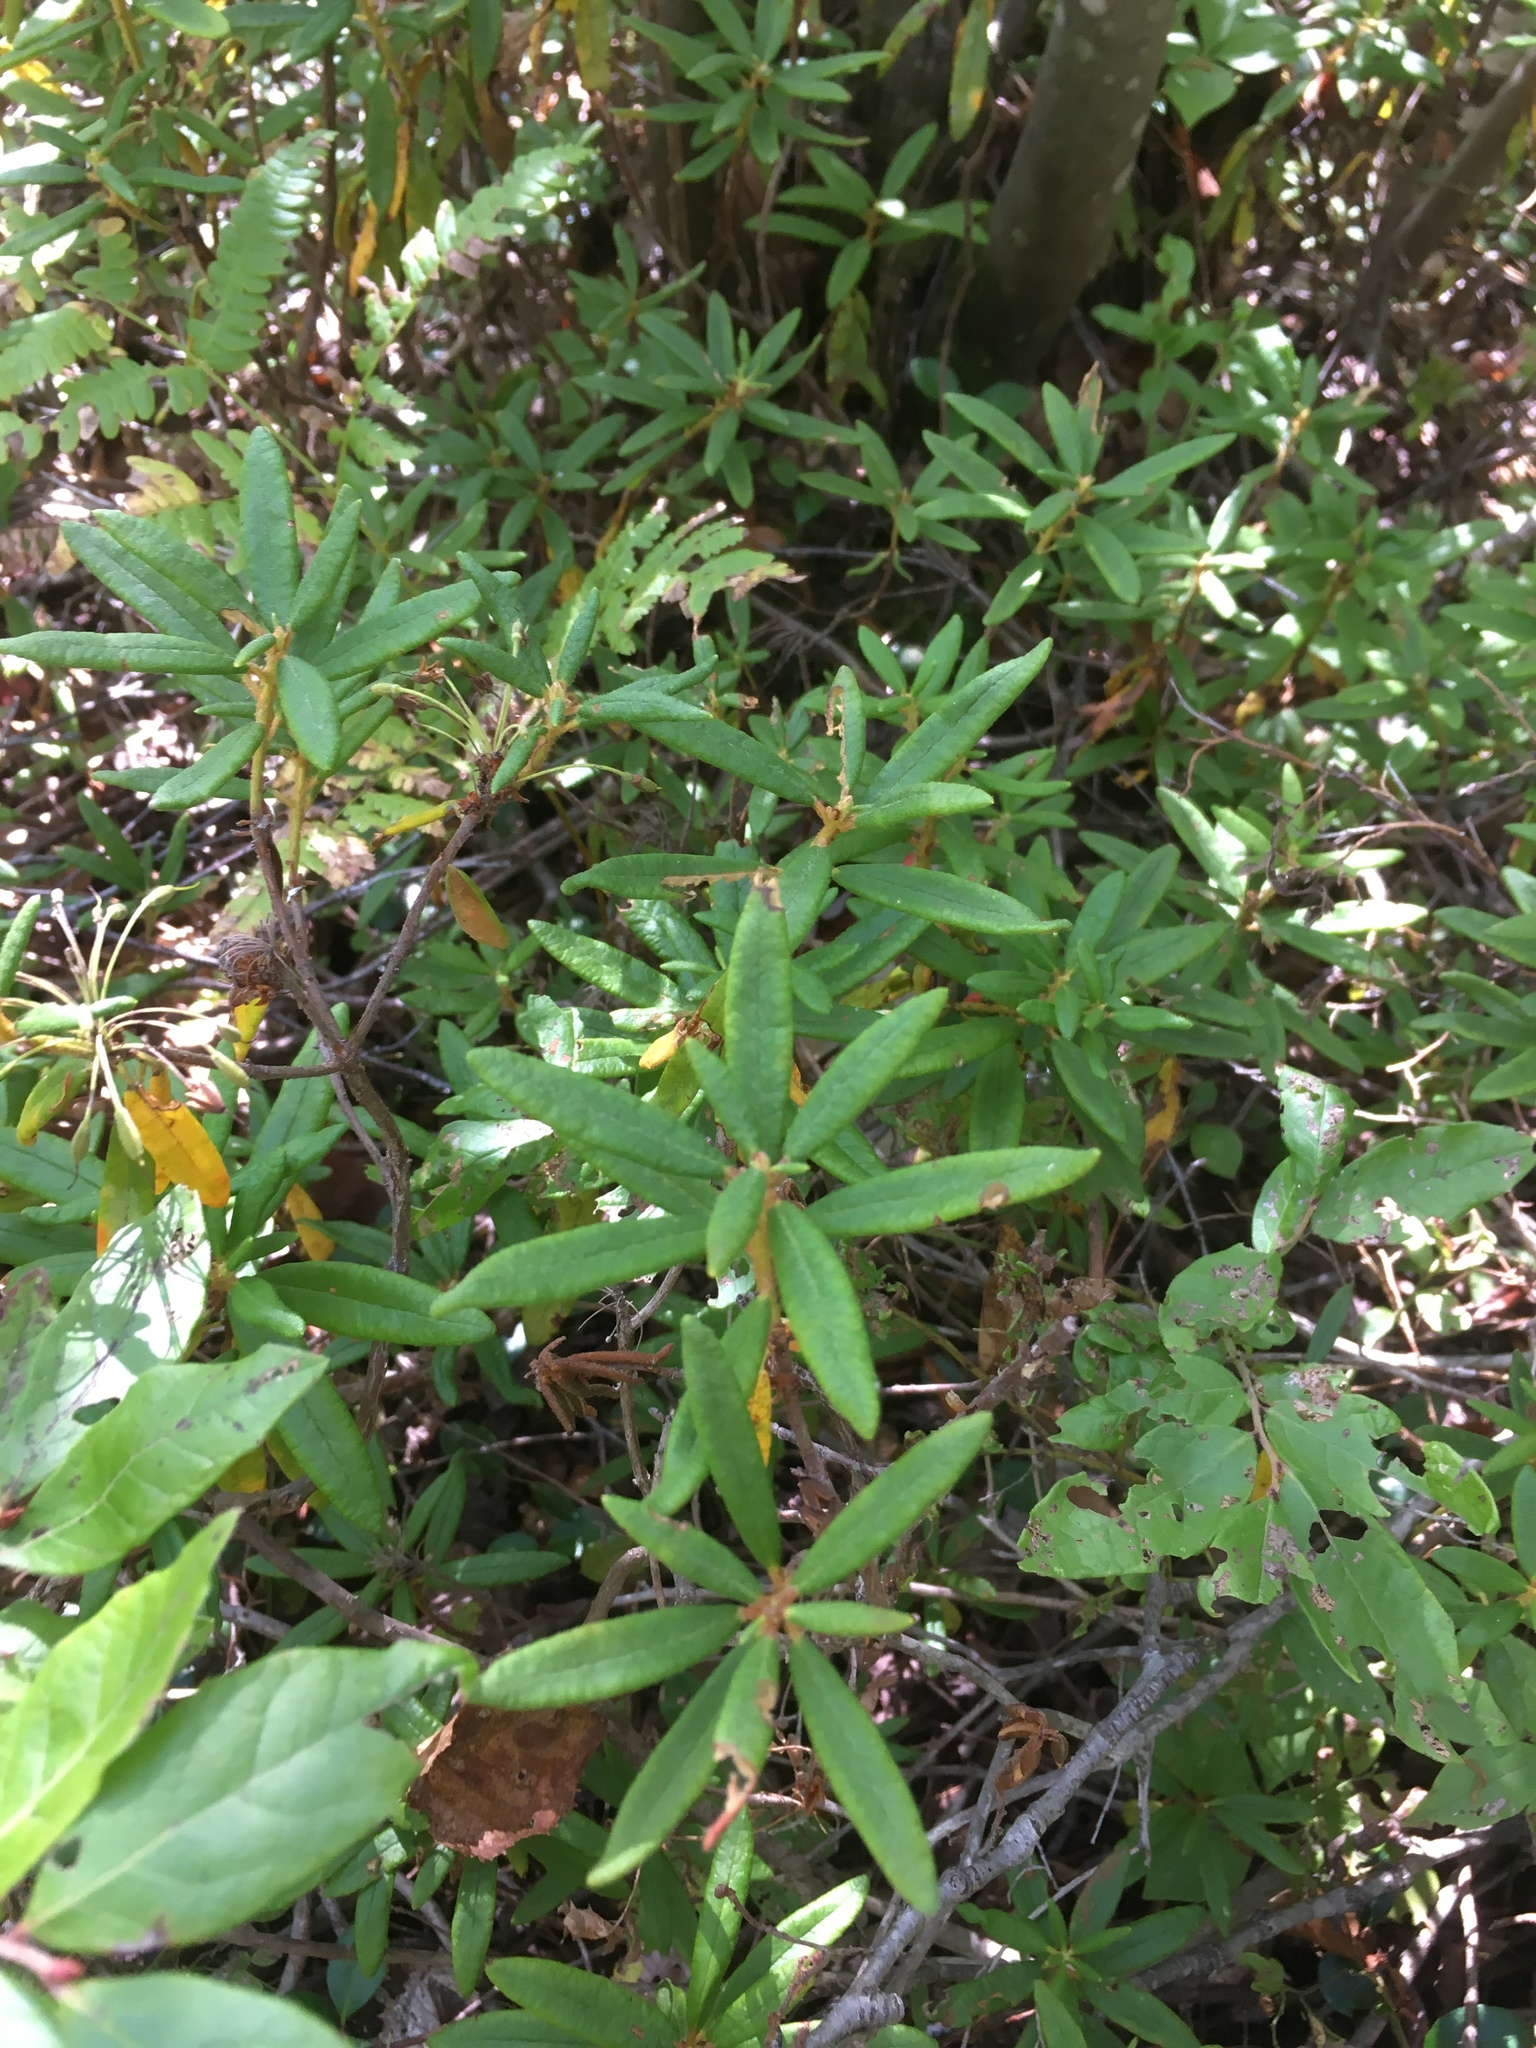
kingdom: Plantae
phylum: Tracheophyta
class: Magnoliopsida
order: Ericales
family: Ericaceae
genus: Rhododendron
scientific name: Rhododendron groenlandicum
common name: Bog labrador tea
